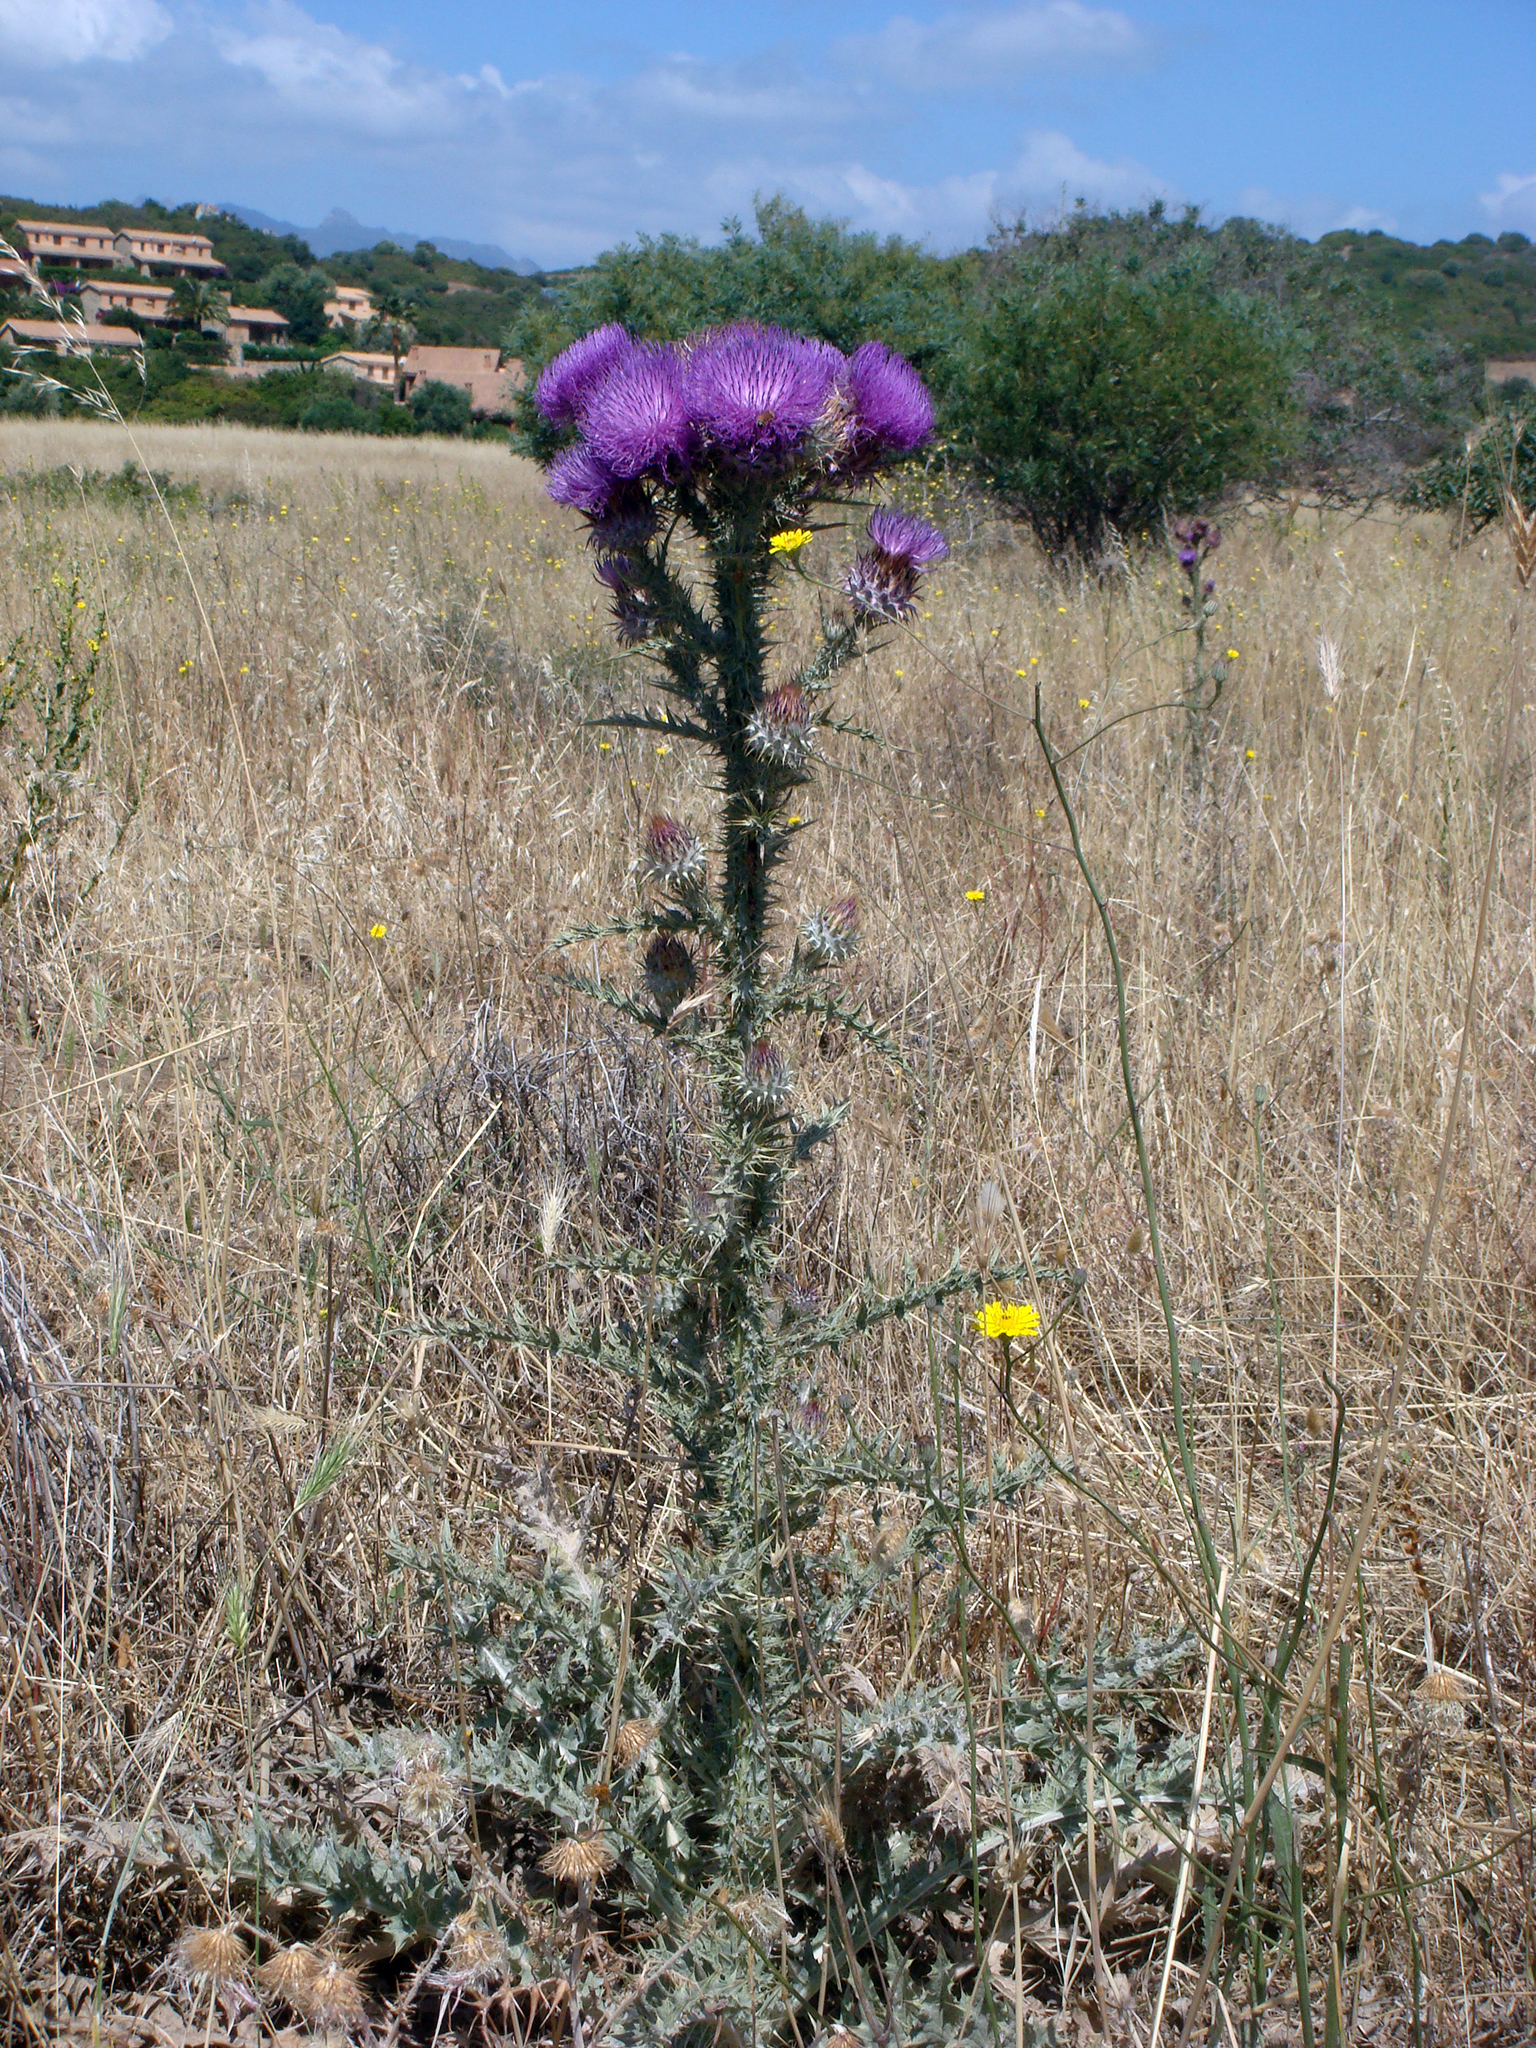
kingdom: Plantae
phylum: Tracheophyta
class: Magnoliopsida
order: Asterales
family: Asteraceae
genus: Onopordum
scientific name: Onopordum illyricum
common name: Illyrian thistle
